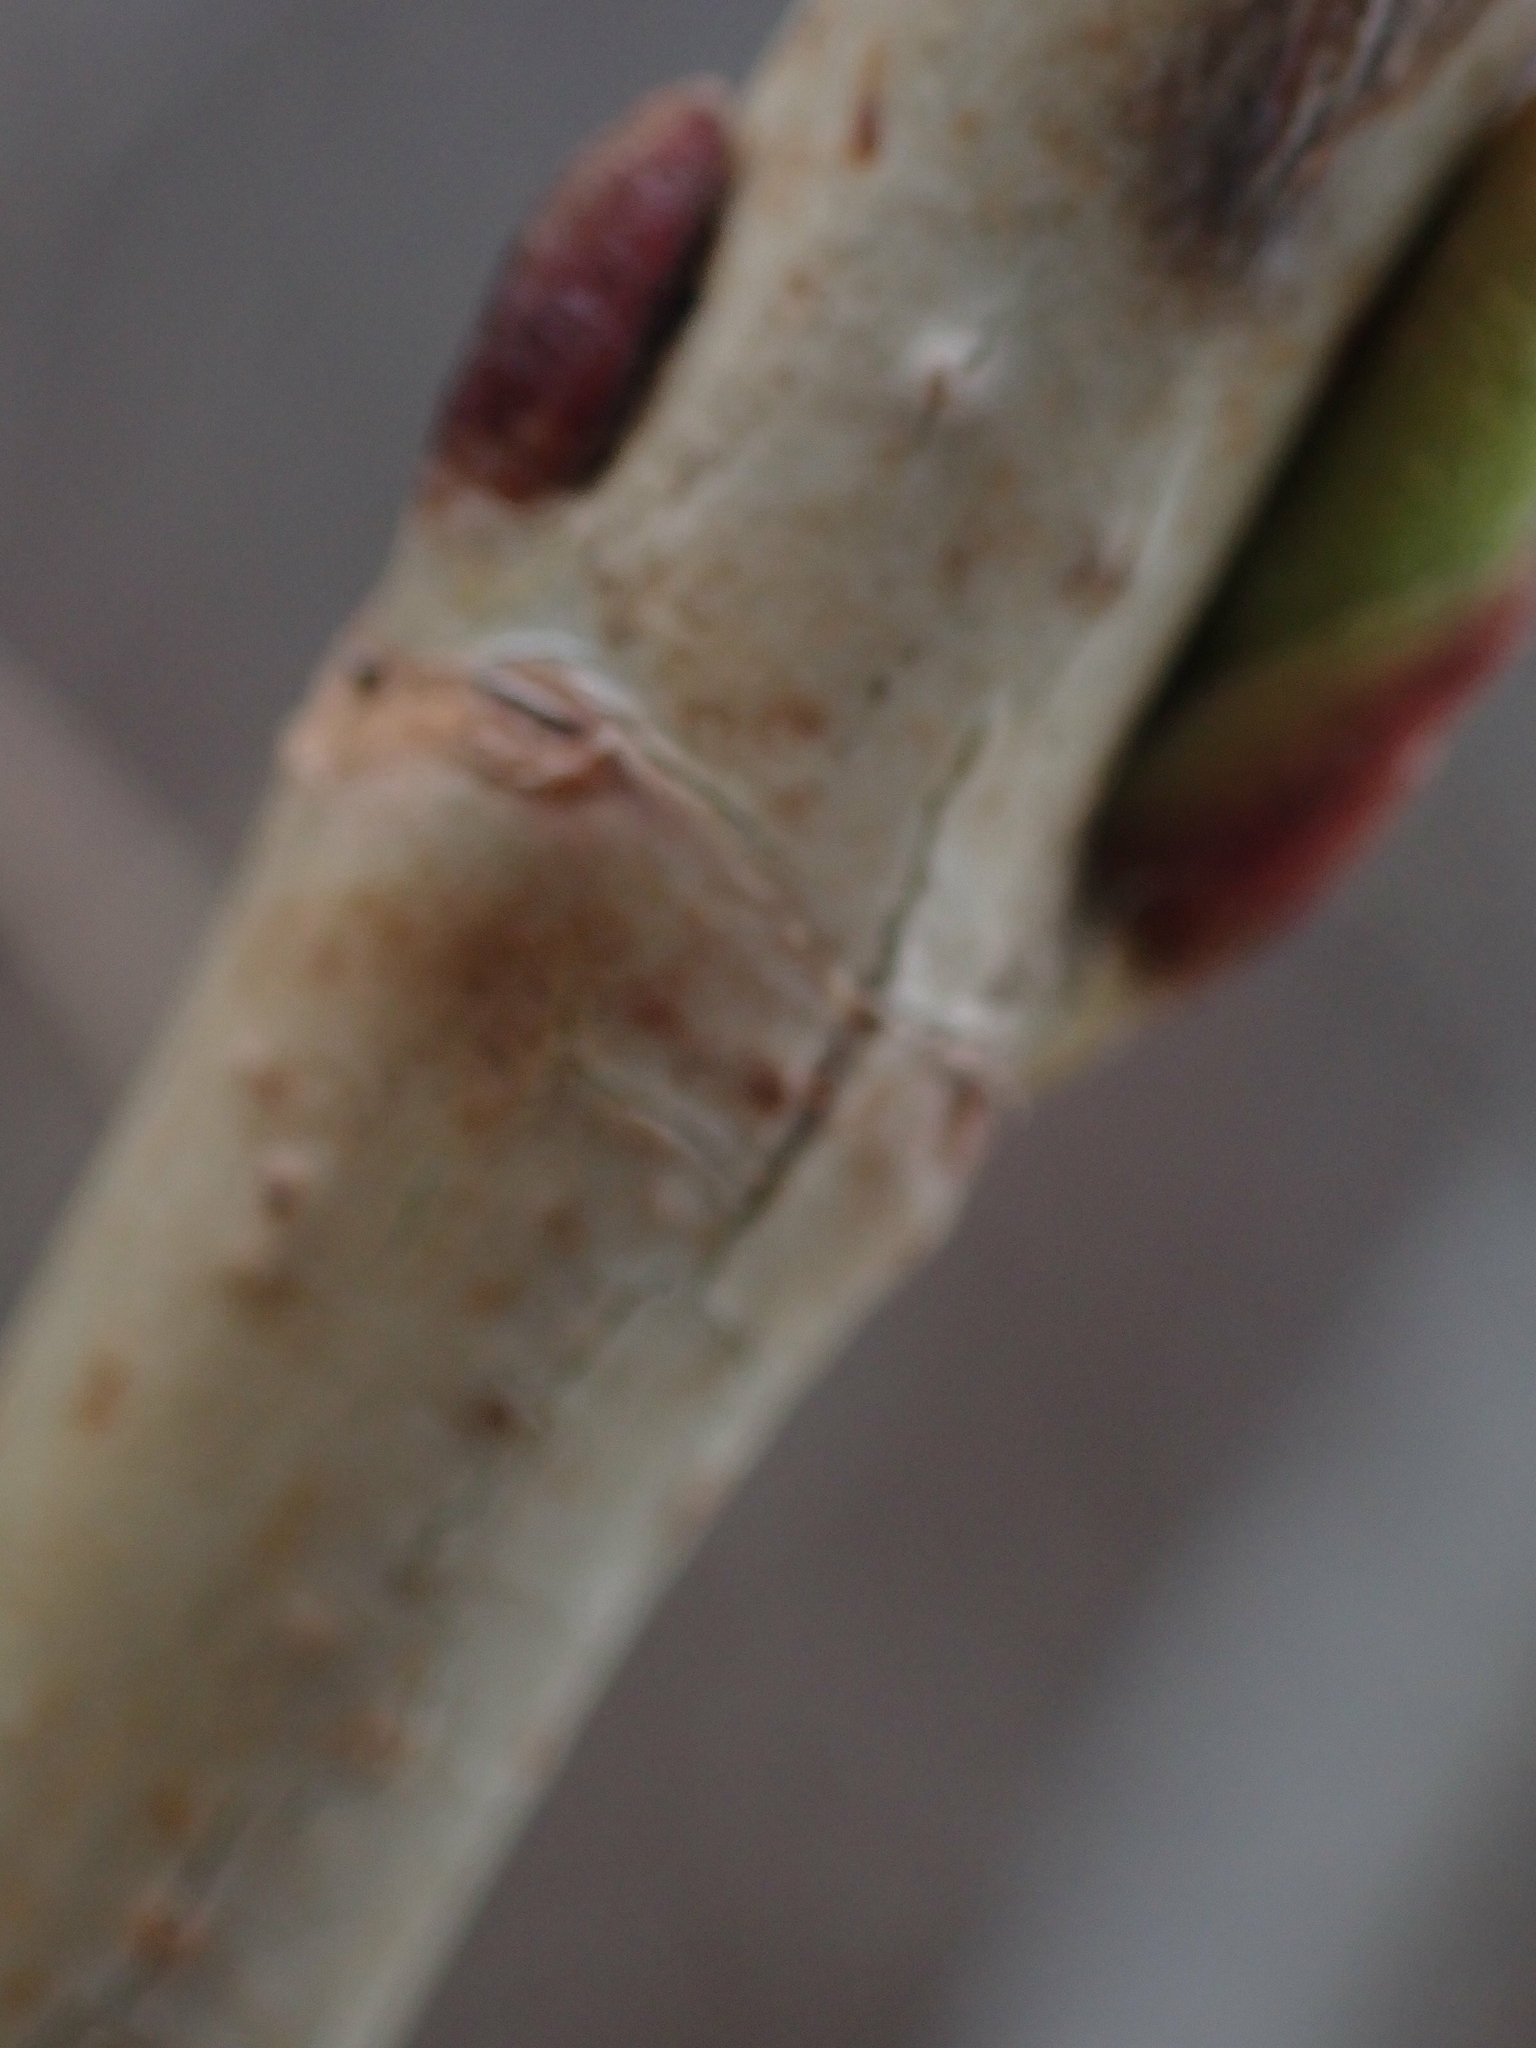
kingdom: Plantae
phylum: Tracheophyta
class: Magnoliopsida
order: Dipsacales
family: Viburnaceae
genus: Viburnum
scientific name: Viburnum opulus
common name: Guelder-rose
